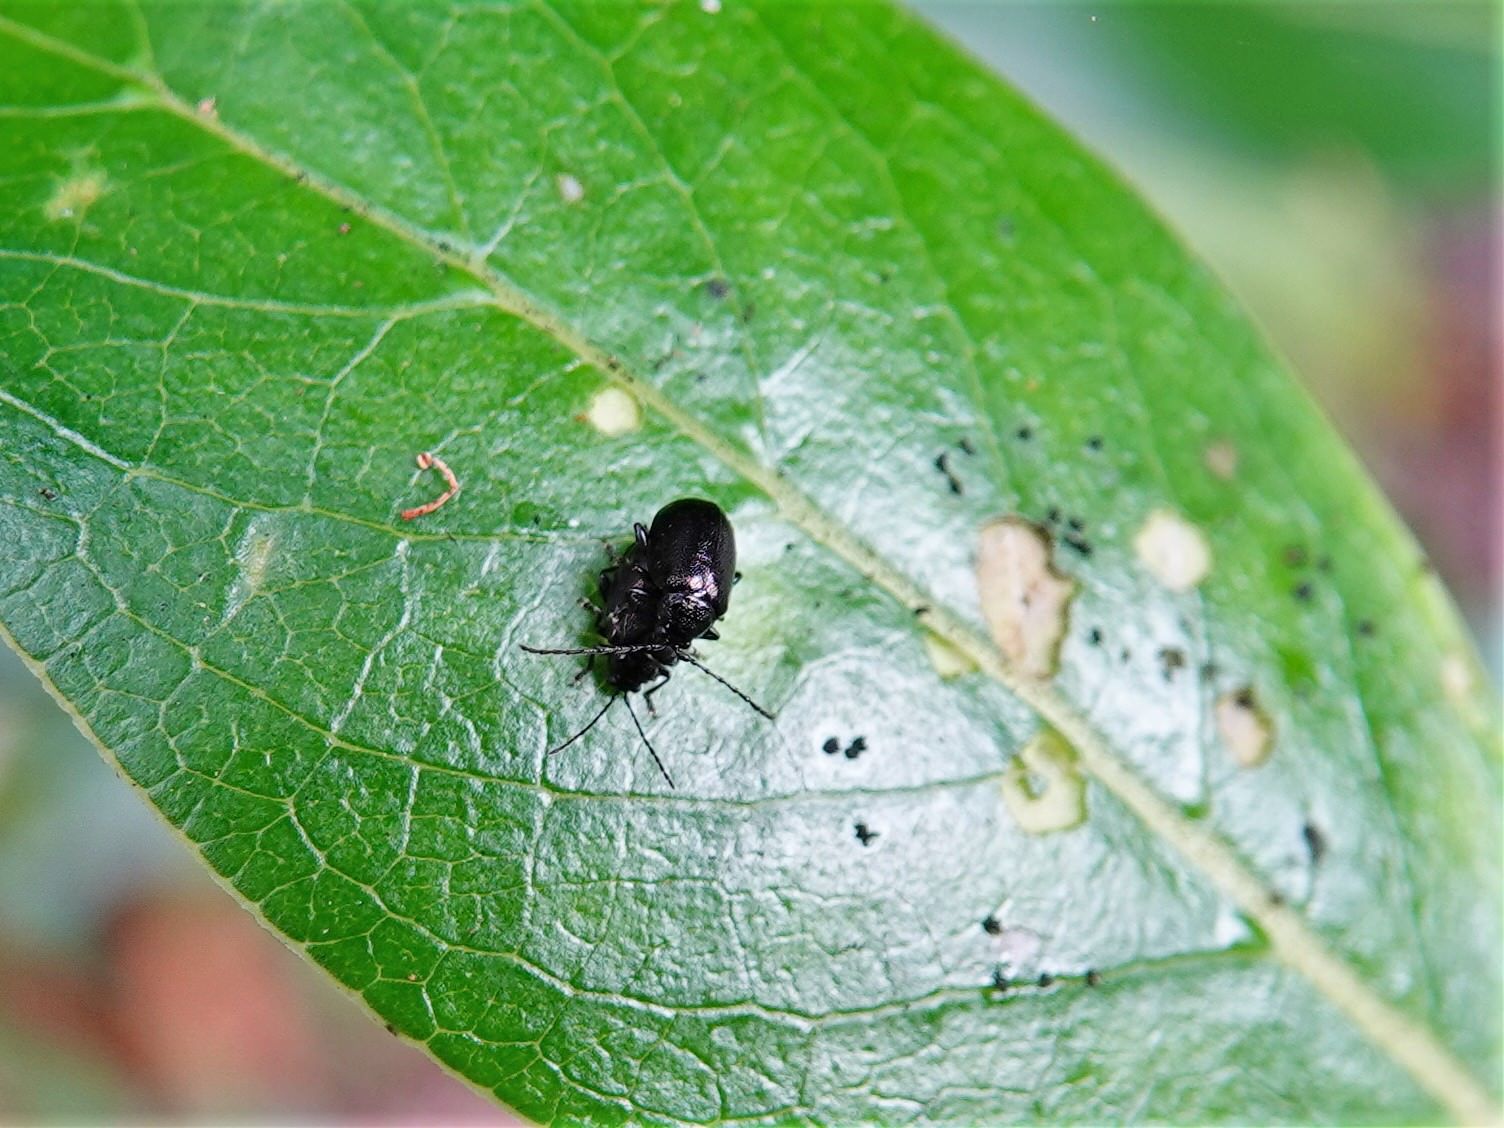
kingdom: Animalia
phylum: Arthropoda
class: Insecta
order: Coleoptera
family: Chrysomelidae
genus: Pleuraltica
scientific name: Pleuraltica cyanea
